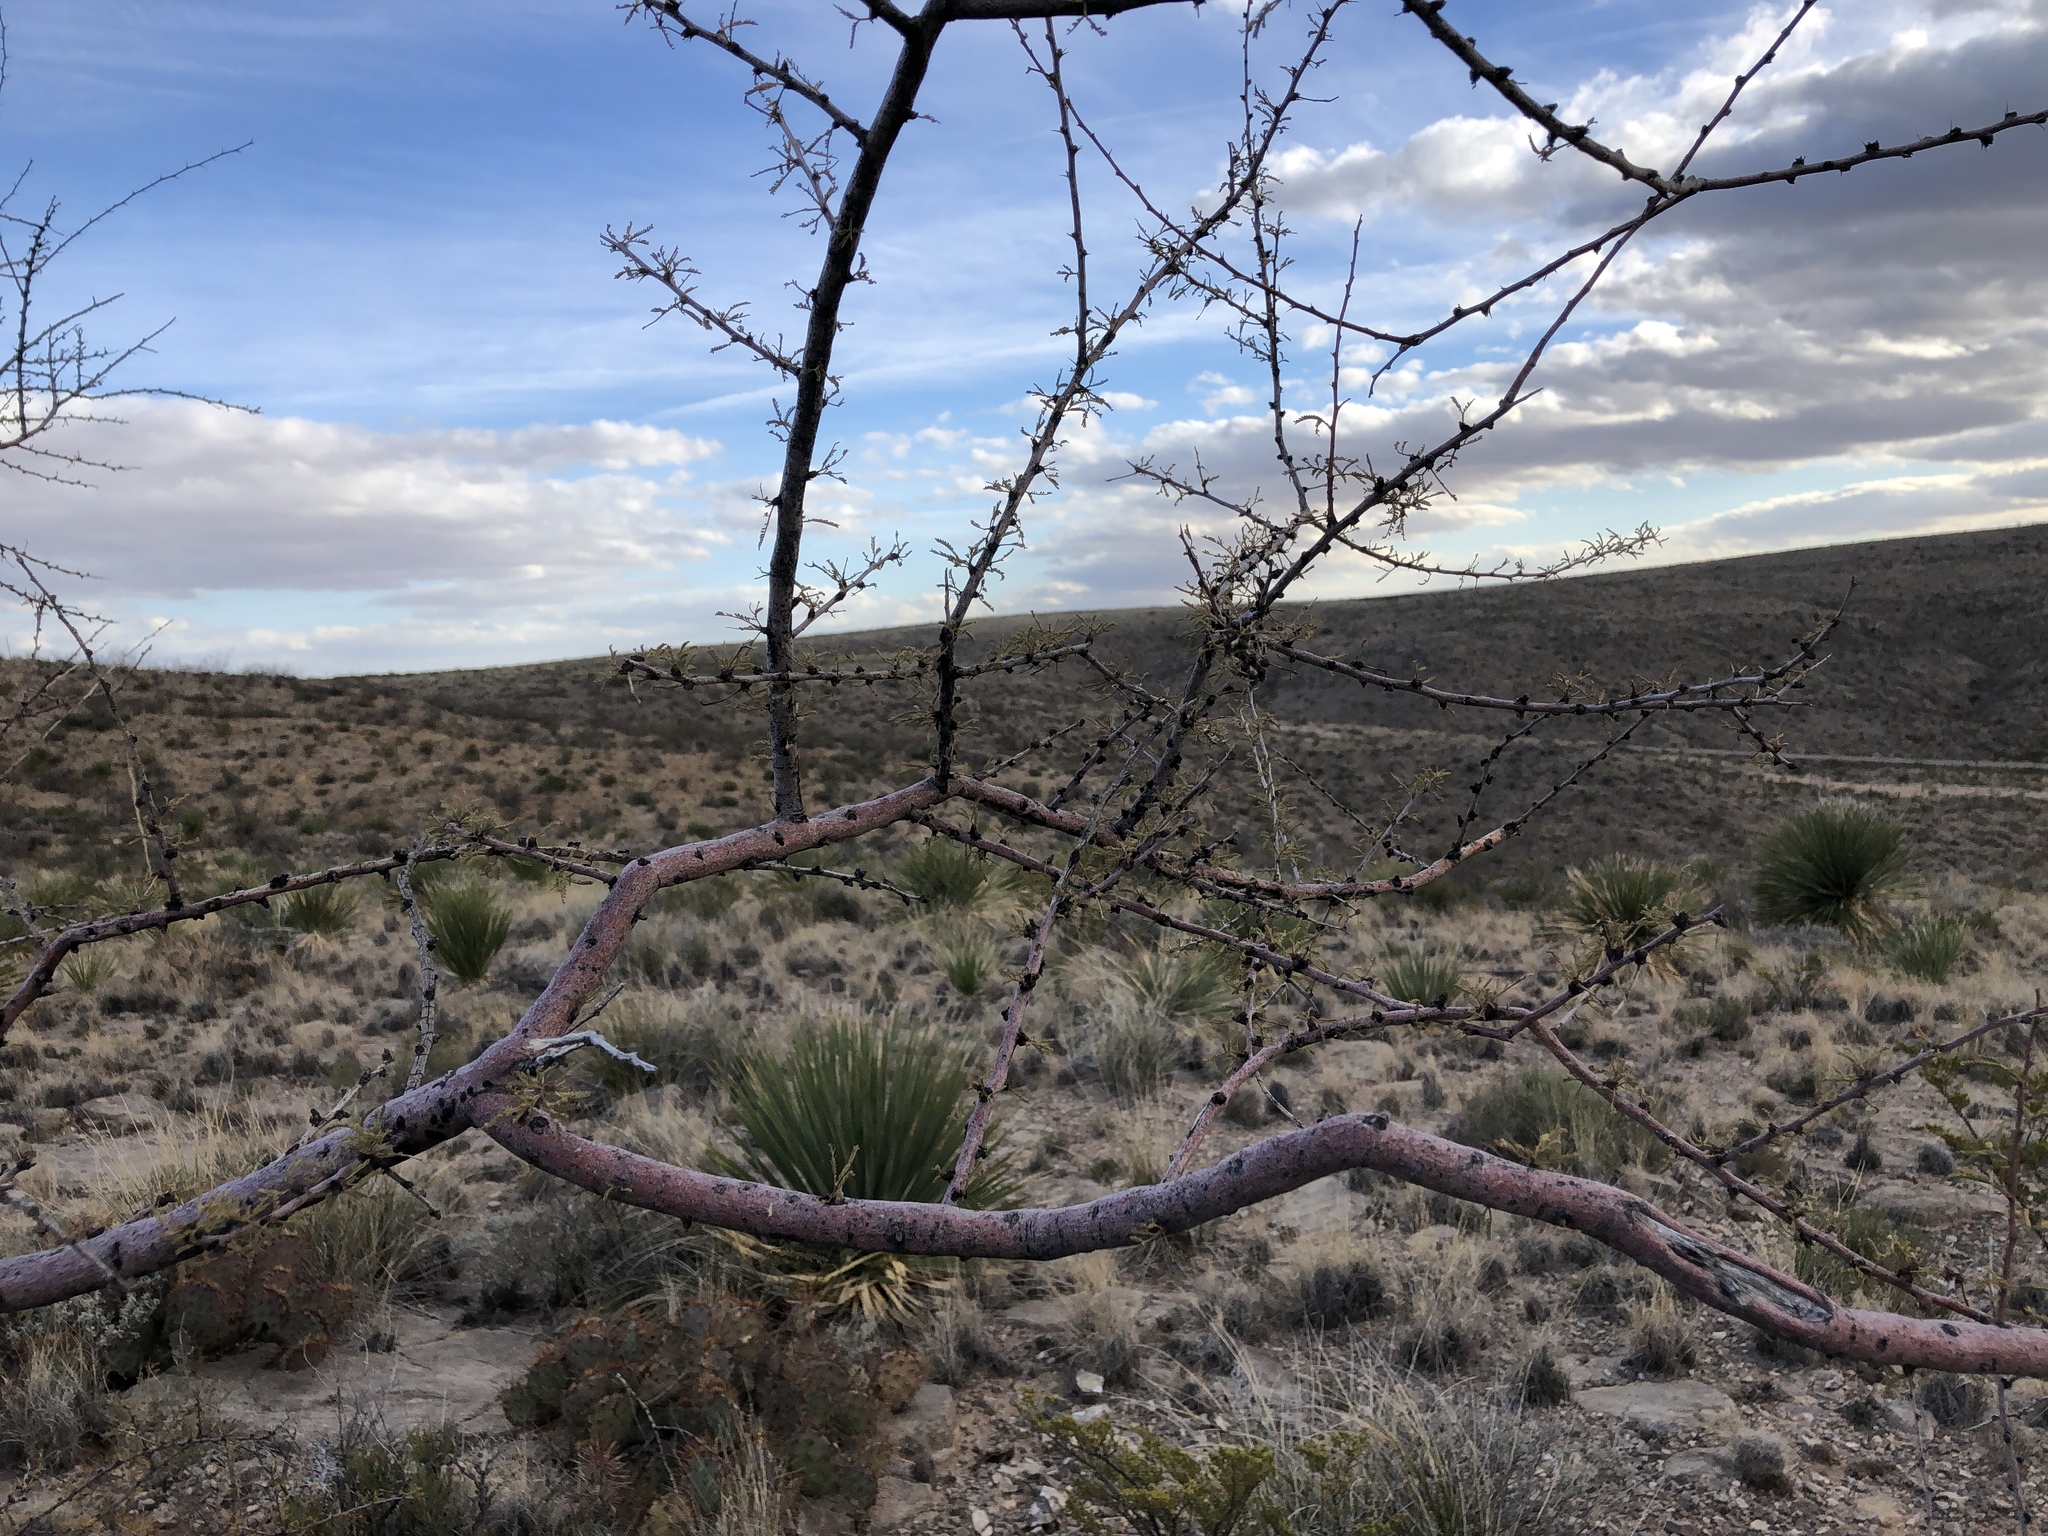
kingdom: Plantae
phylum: Tracheophyta
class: Magnoliopsida
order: Fabales
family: Fabaceae
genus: Vachellia
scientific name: Vachellia constricta
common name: Mescat acacia
